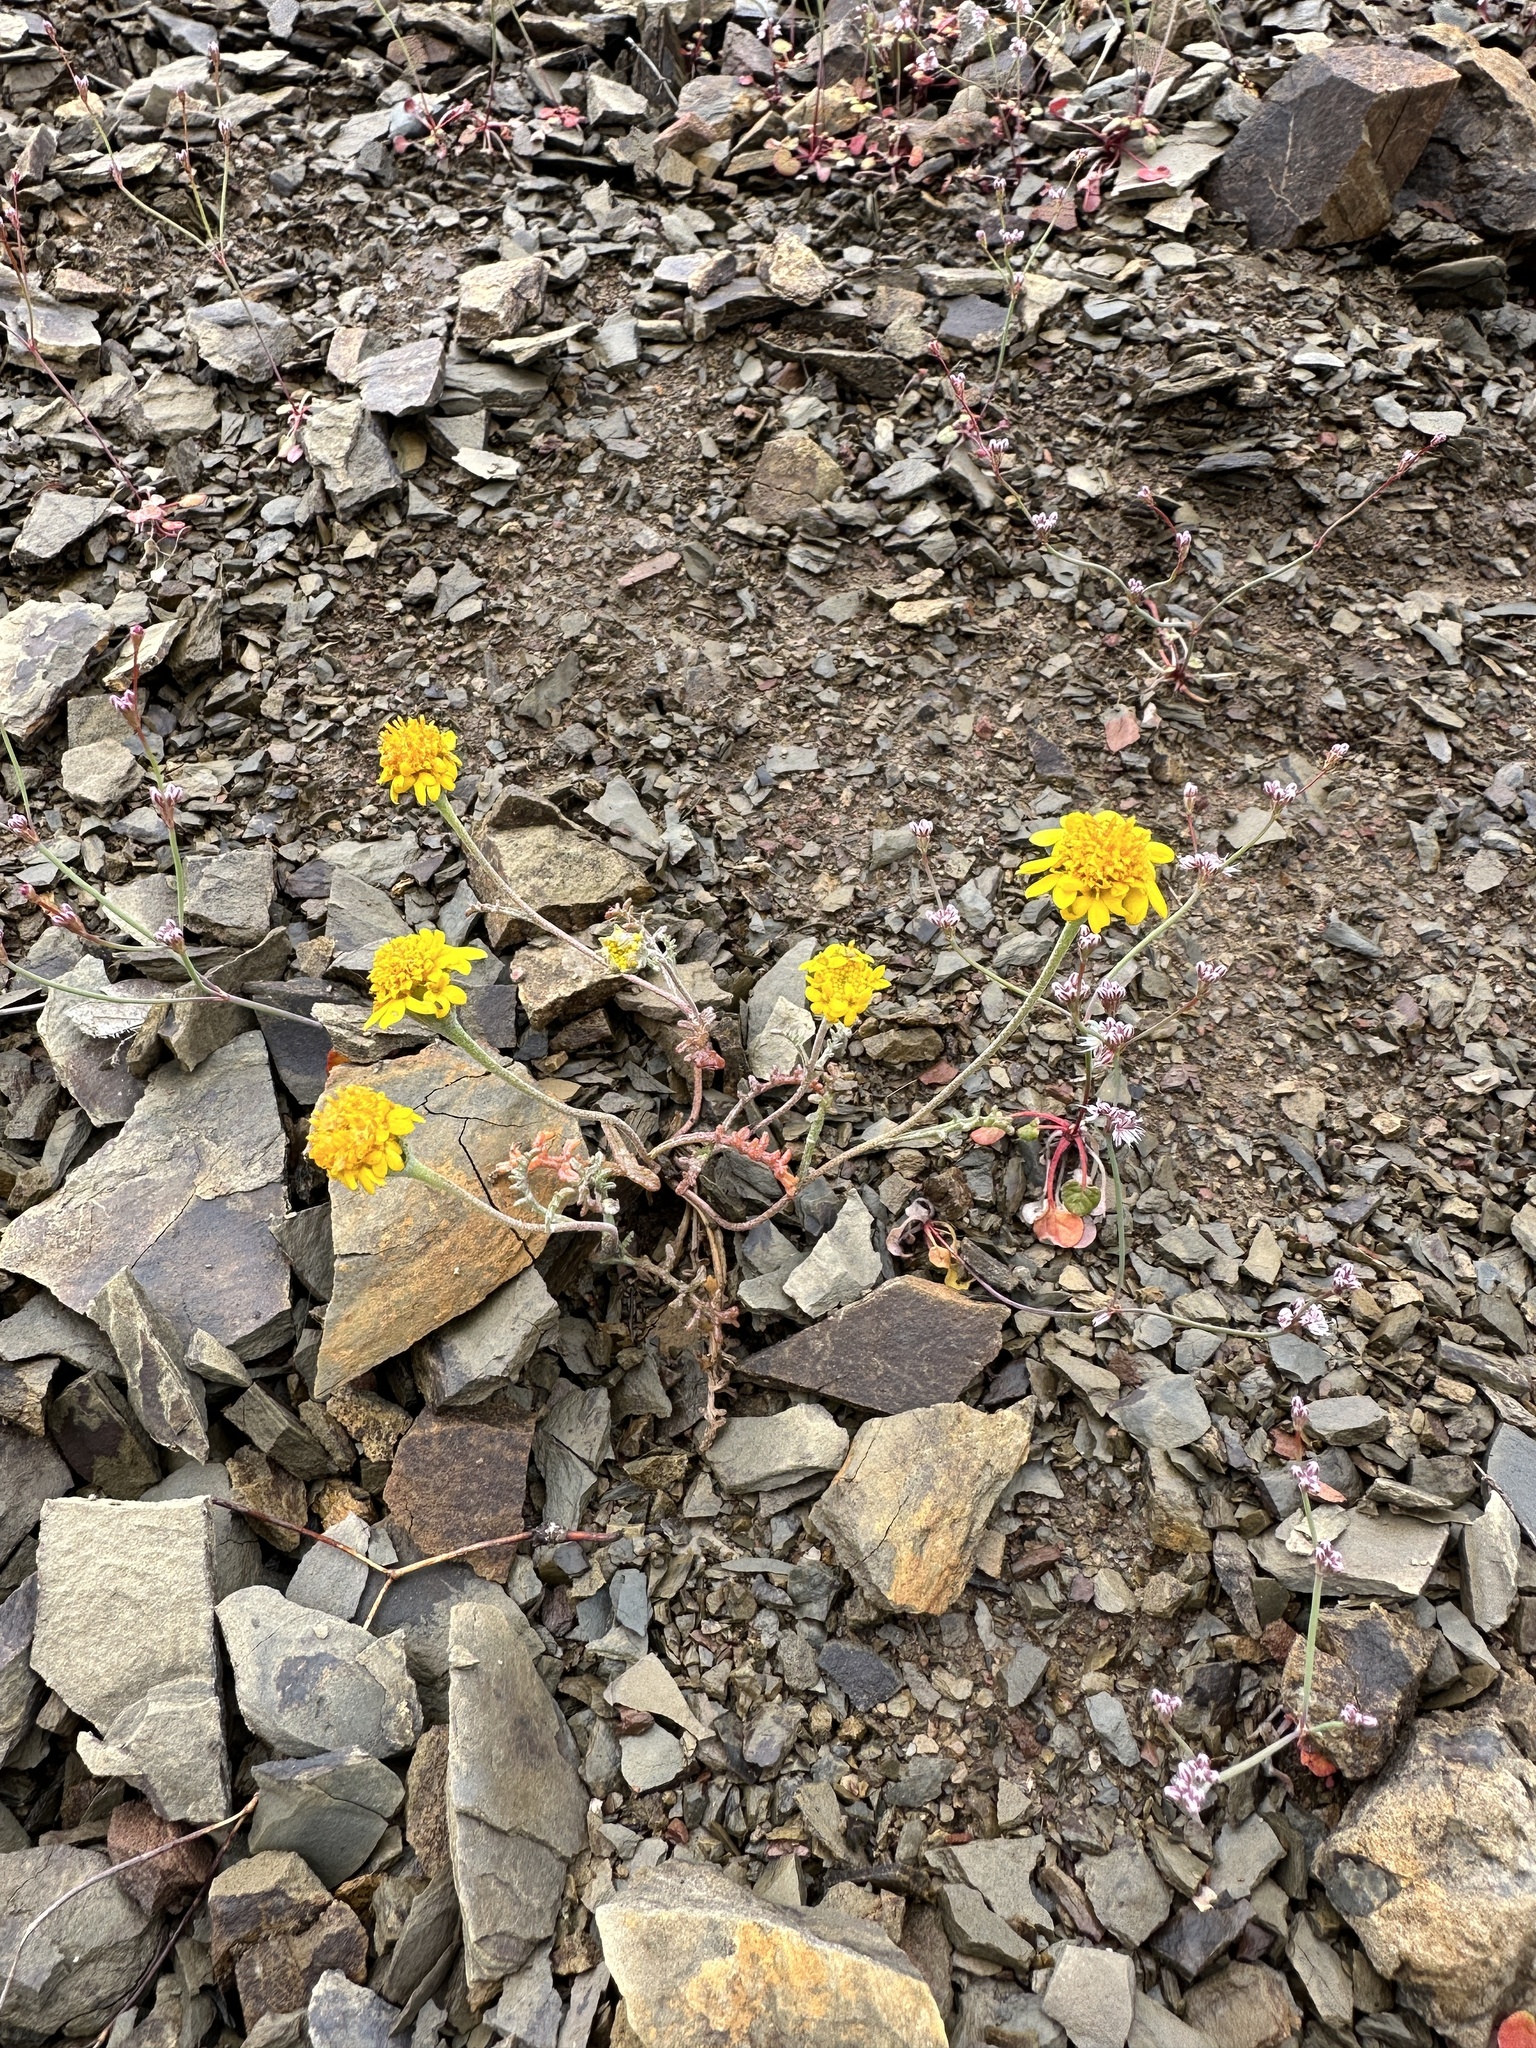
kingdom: Plantae
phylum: Tracheophyta
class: Magnoliopsida
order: Asterales
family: Asteraceae
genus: Chaenactis
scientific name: Chaenactis glabriuscula
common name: Yellow pincushion
